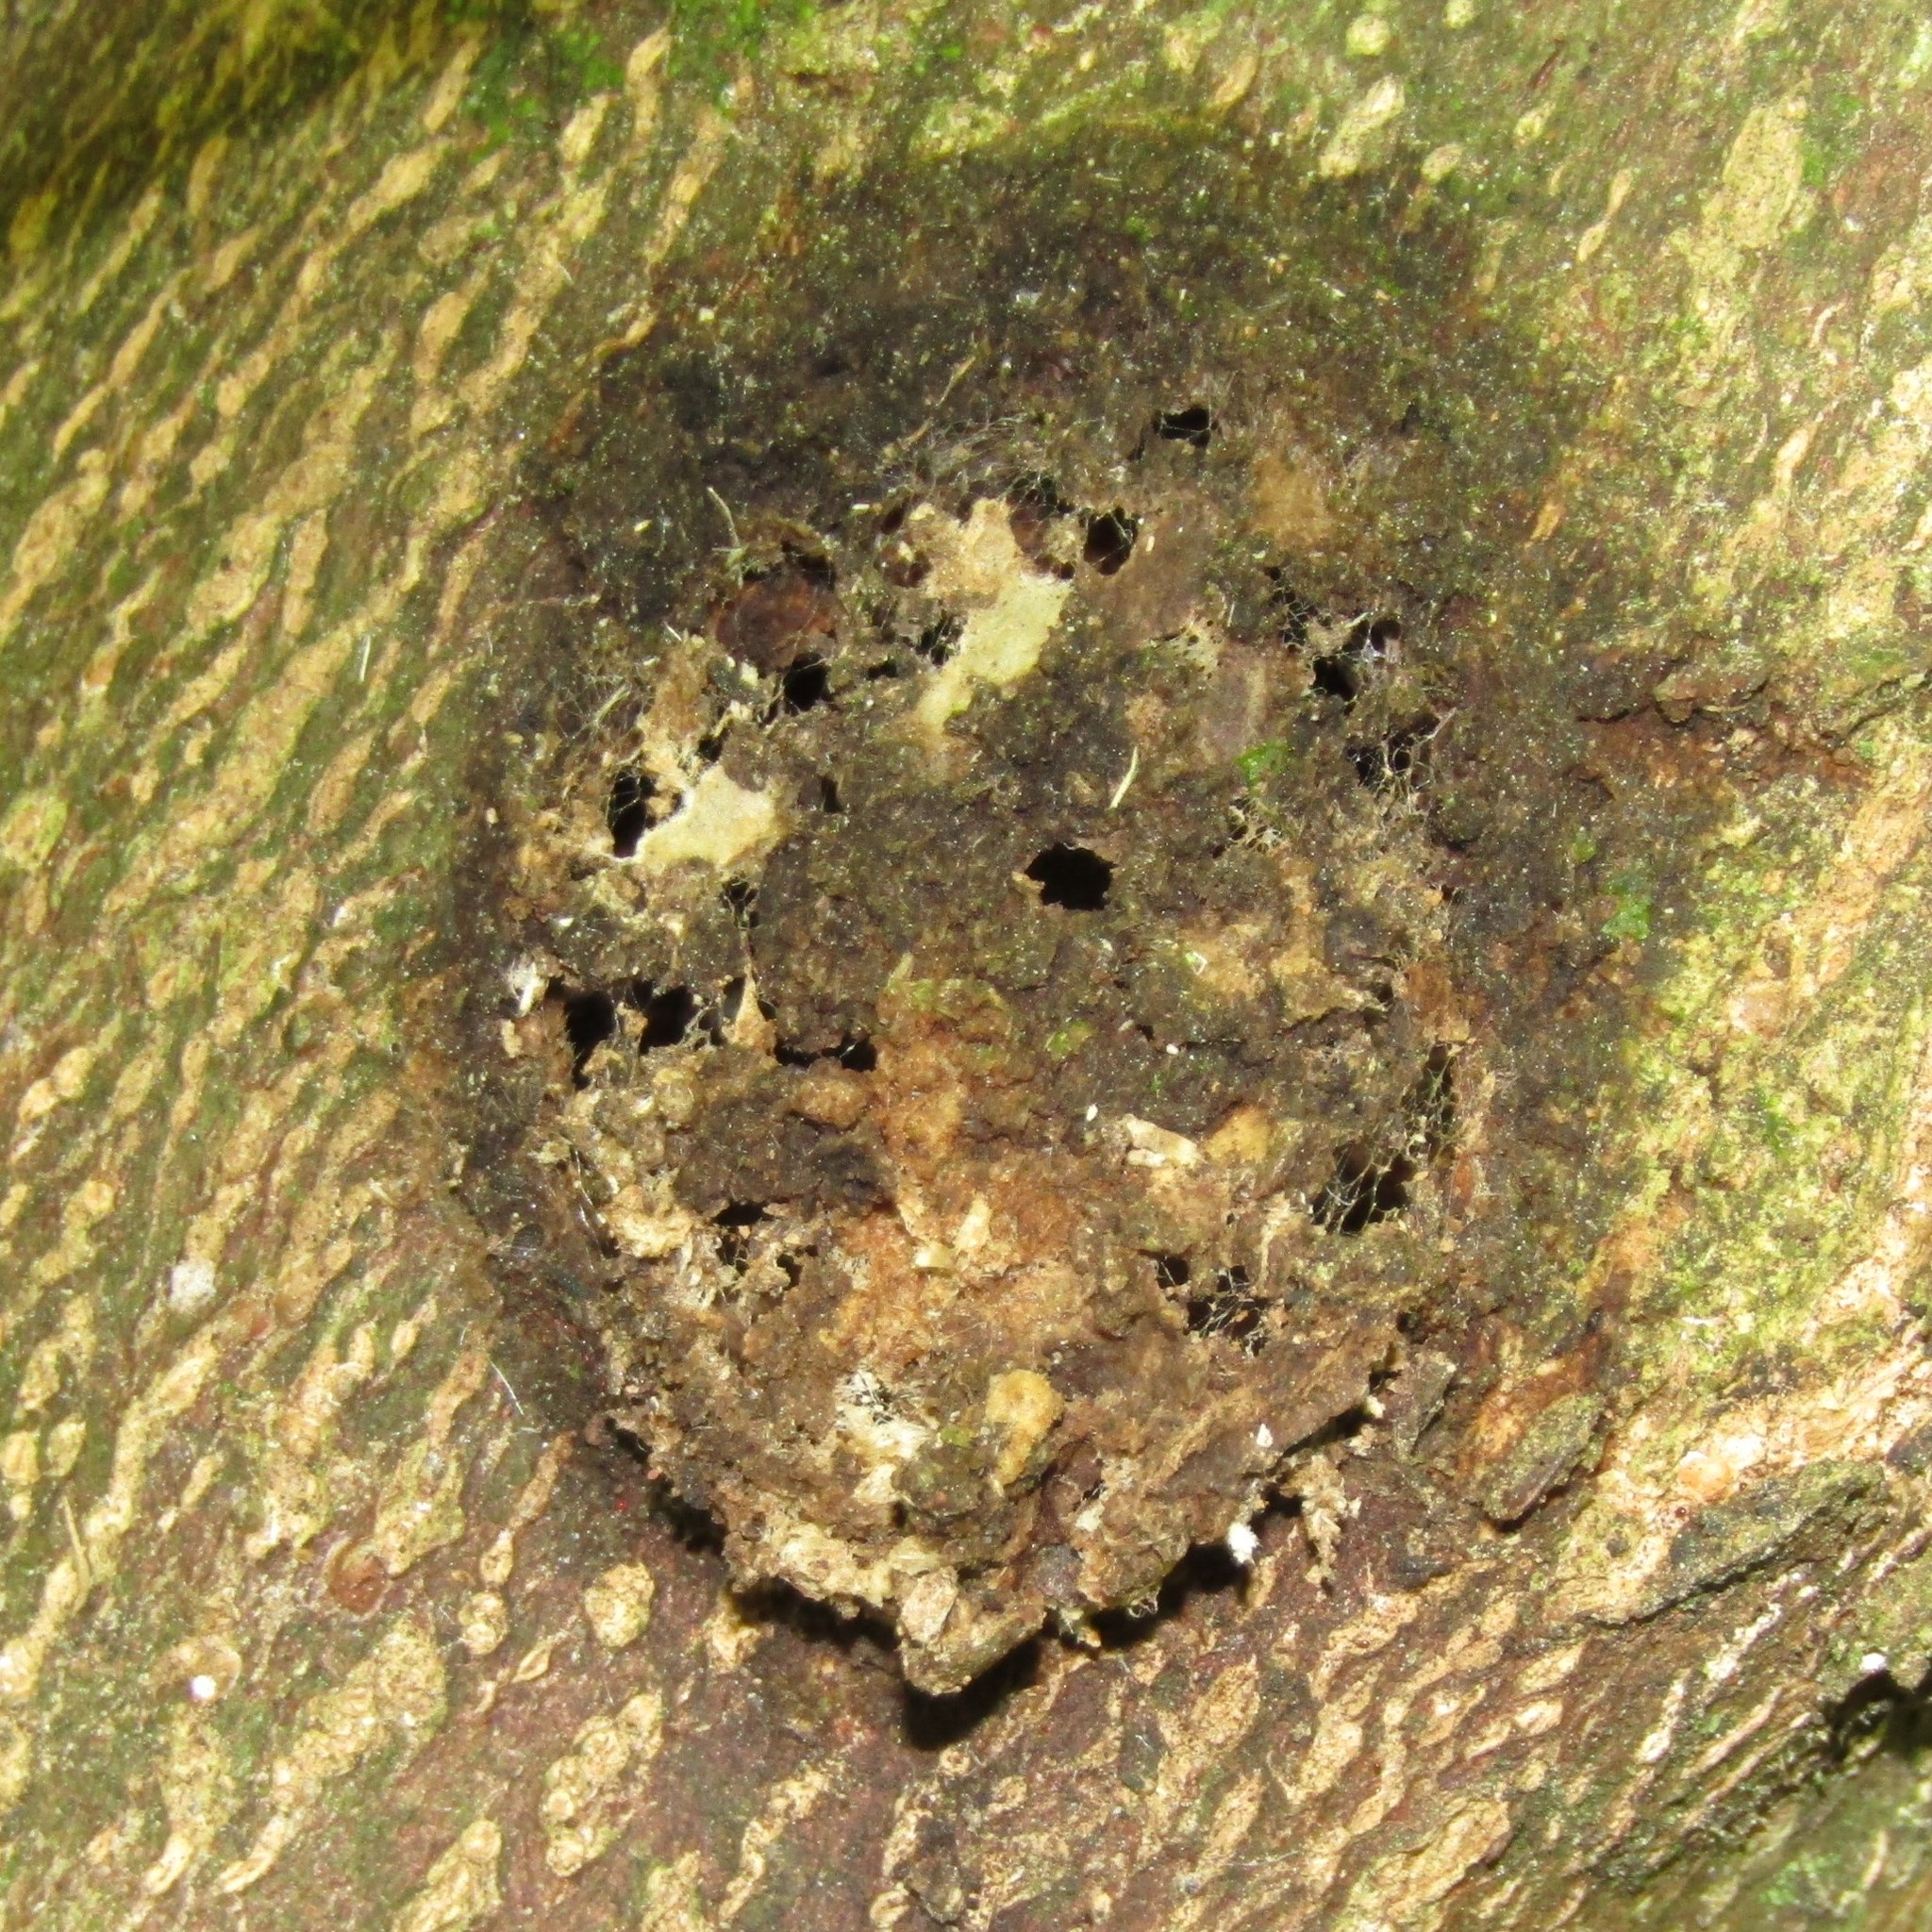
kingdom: Animalia
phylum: Arthropoda
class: Insecta
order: Lepidoptera
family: Hepialidae
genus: Aenetus
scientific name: Aenetus virescens
